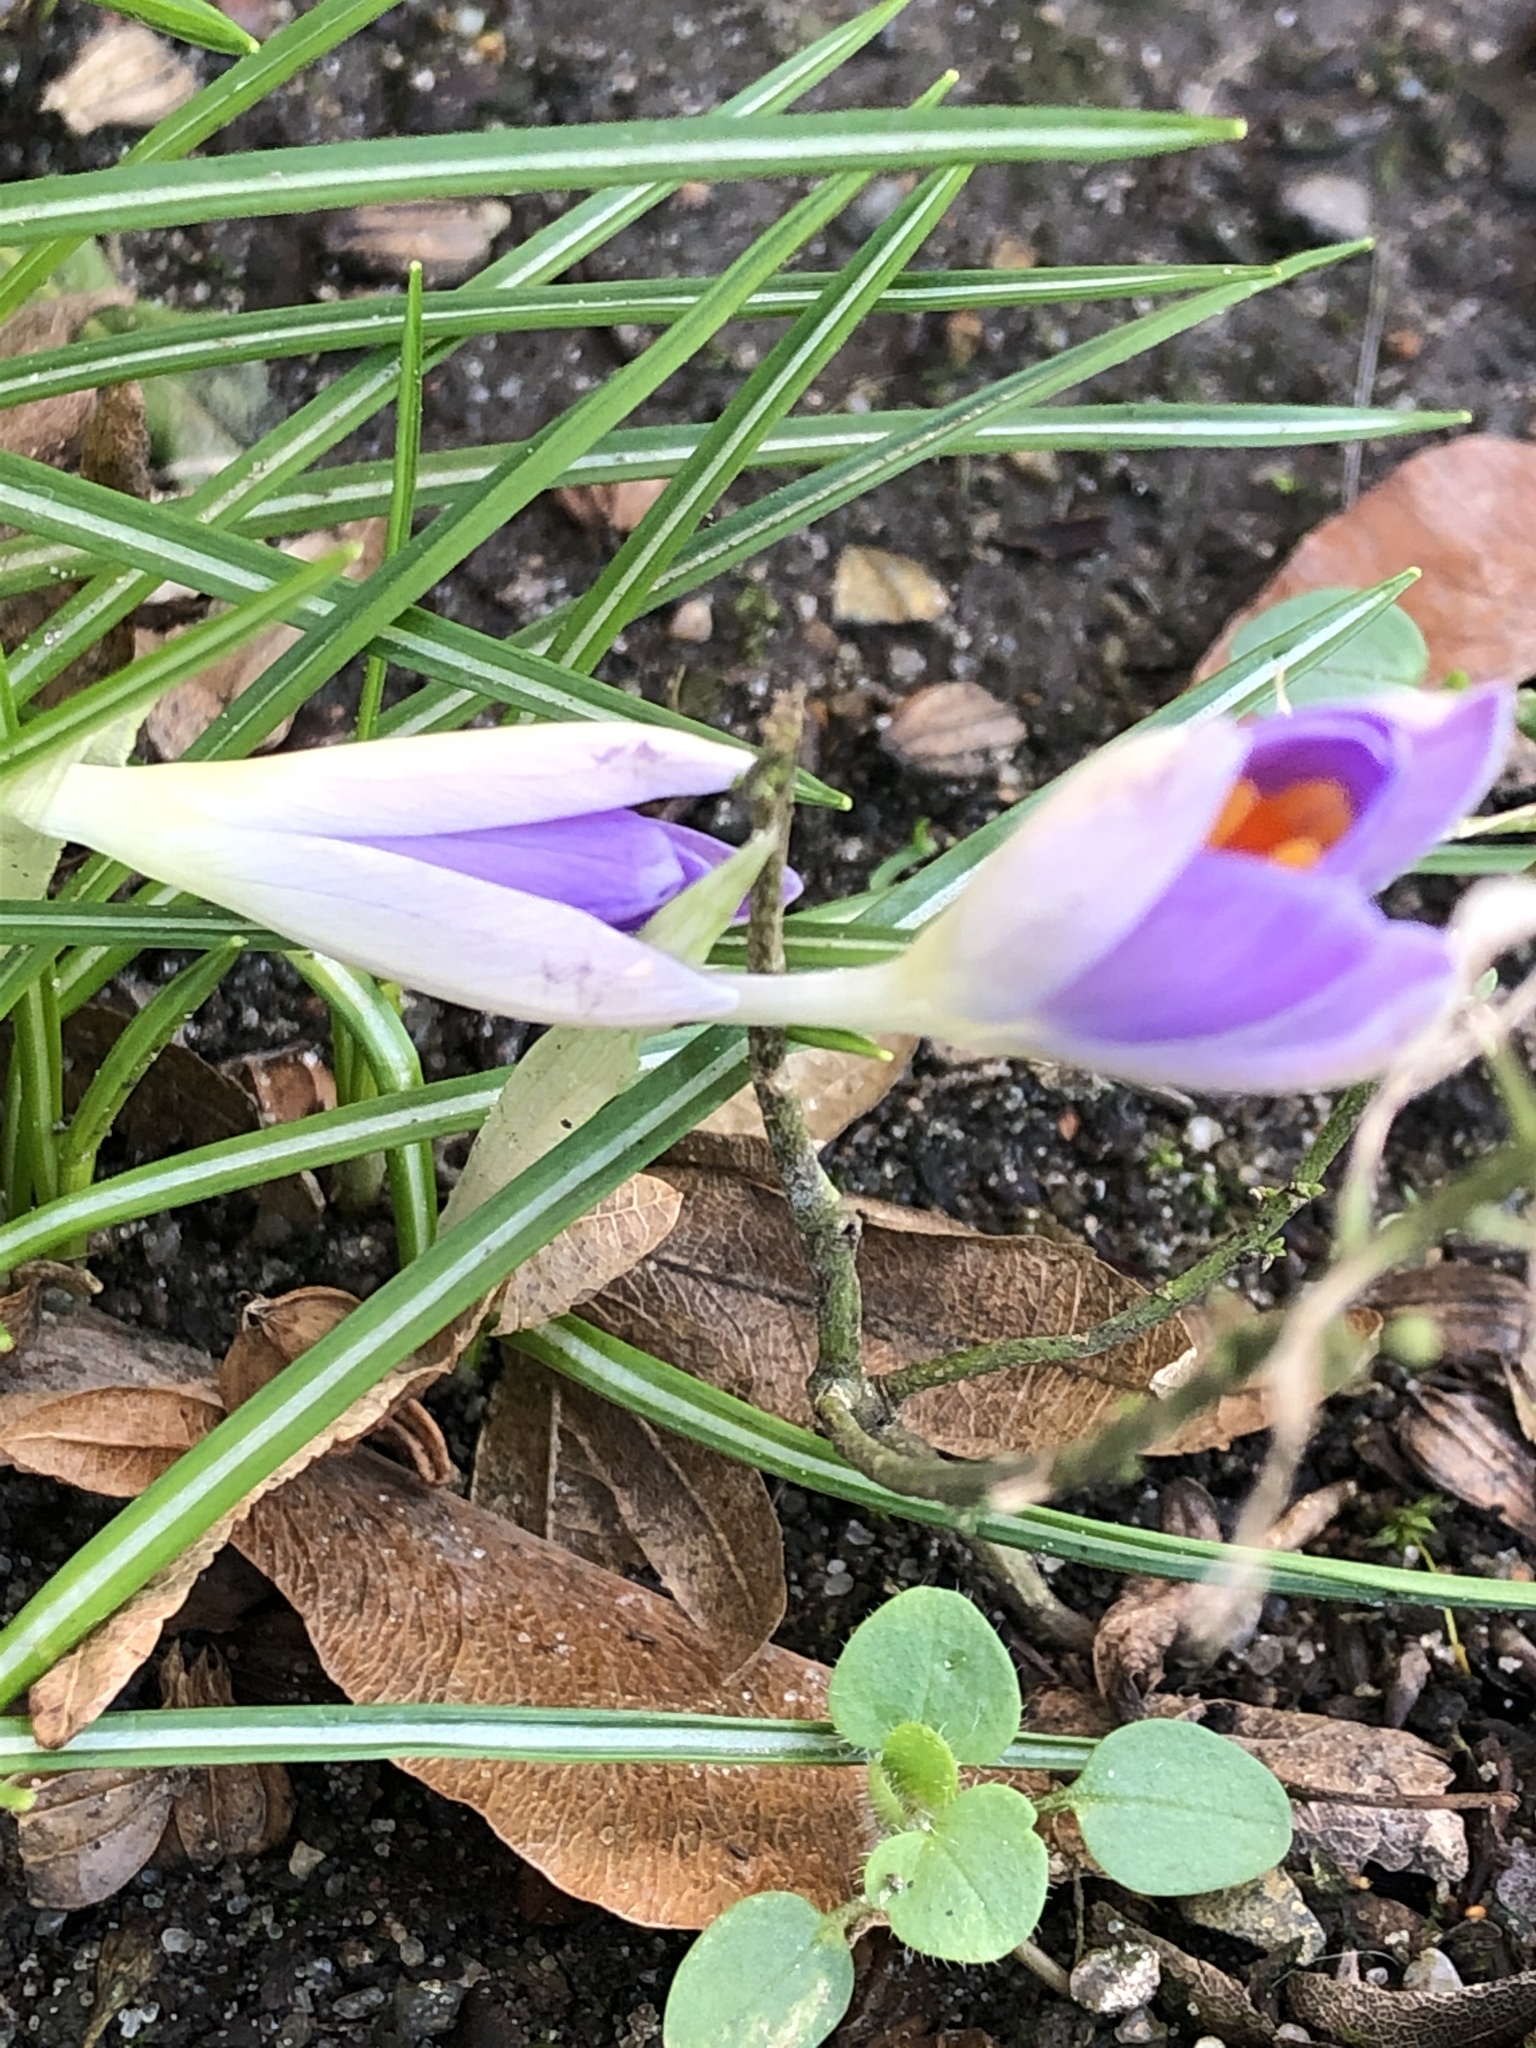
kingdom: Plantae
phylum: Tracheophyta
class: Liliopsida
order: Asparagales
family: Iridaceae
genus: Crocus
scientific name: Crocus tommasinianus
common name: Early crocus
